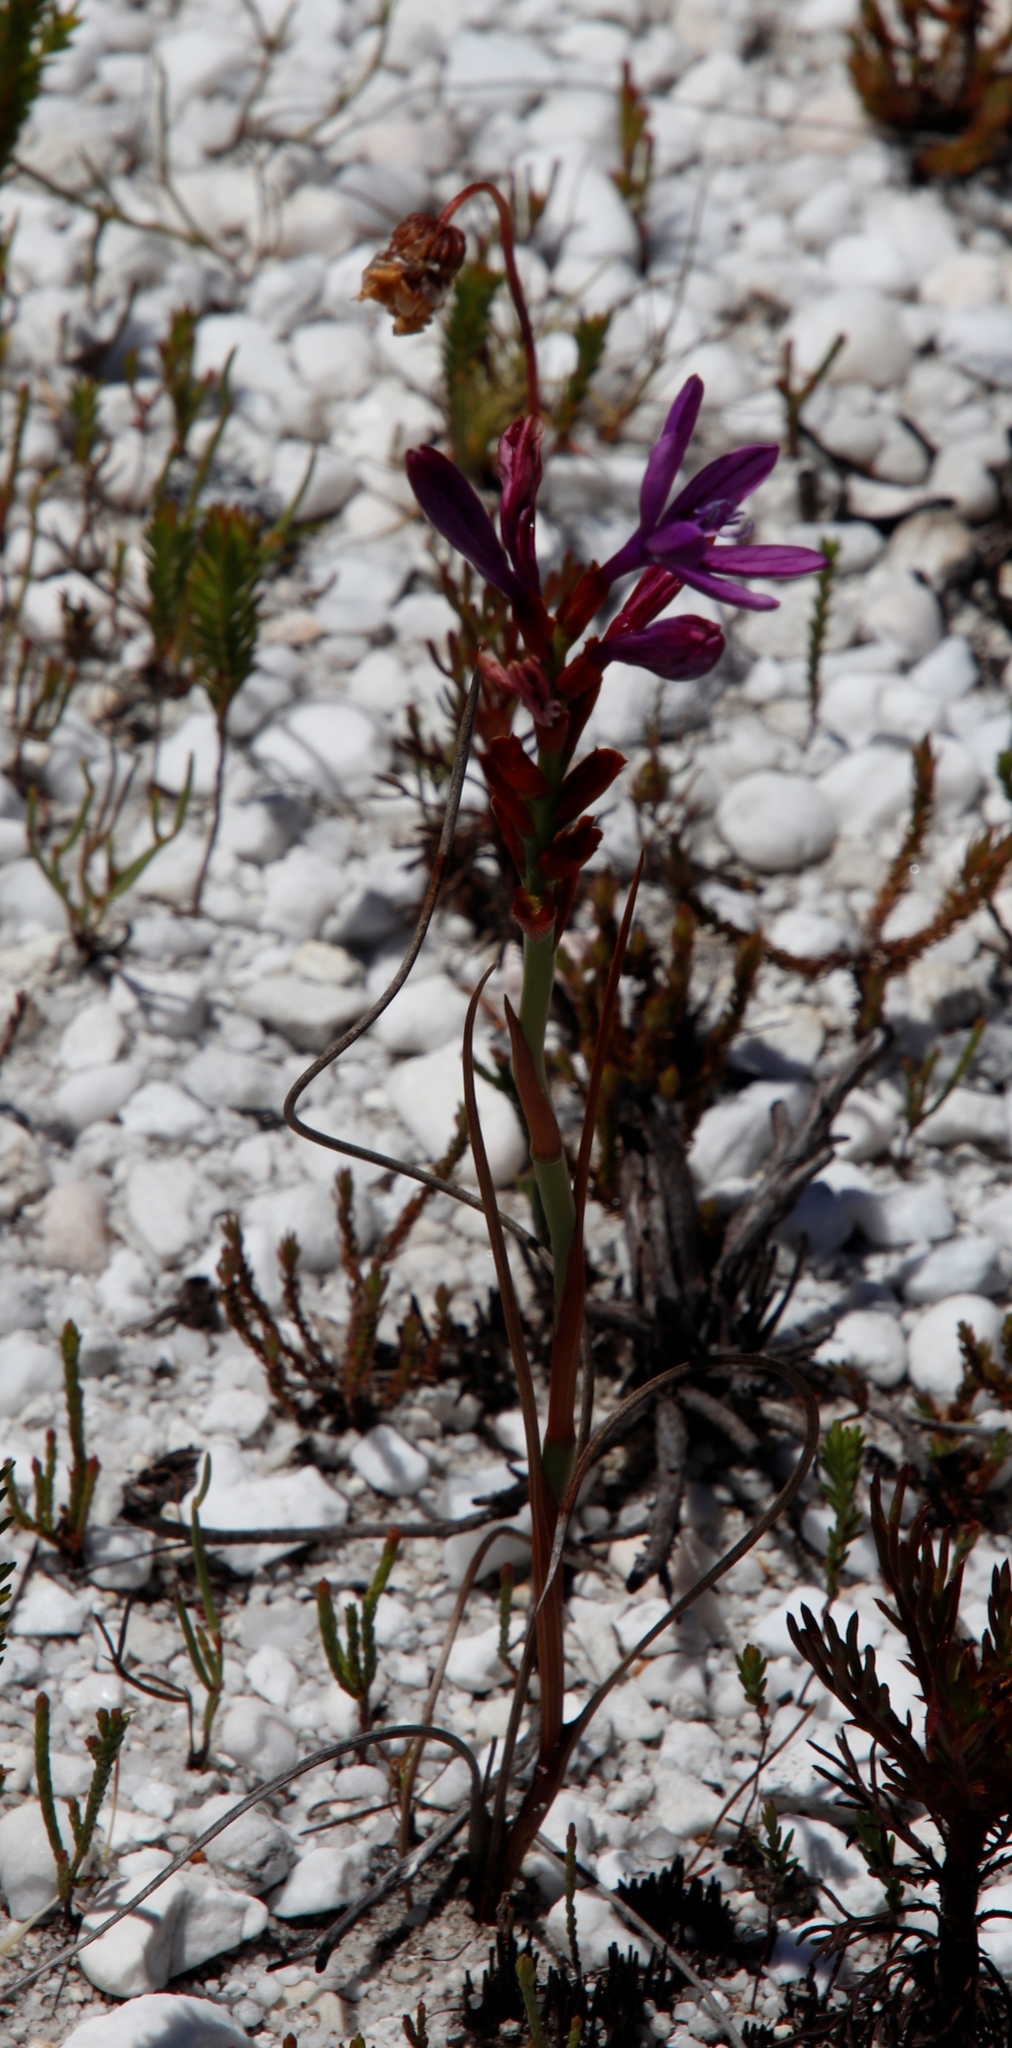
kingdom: Plantae
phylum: Tracheophyta
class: Liliopsida
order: Asparagales
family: Iridaceae
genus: Thereianthus
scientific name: Thereianthus bracteolatus
